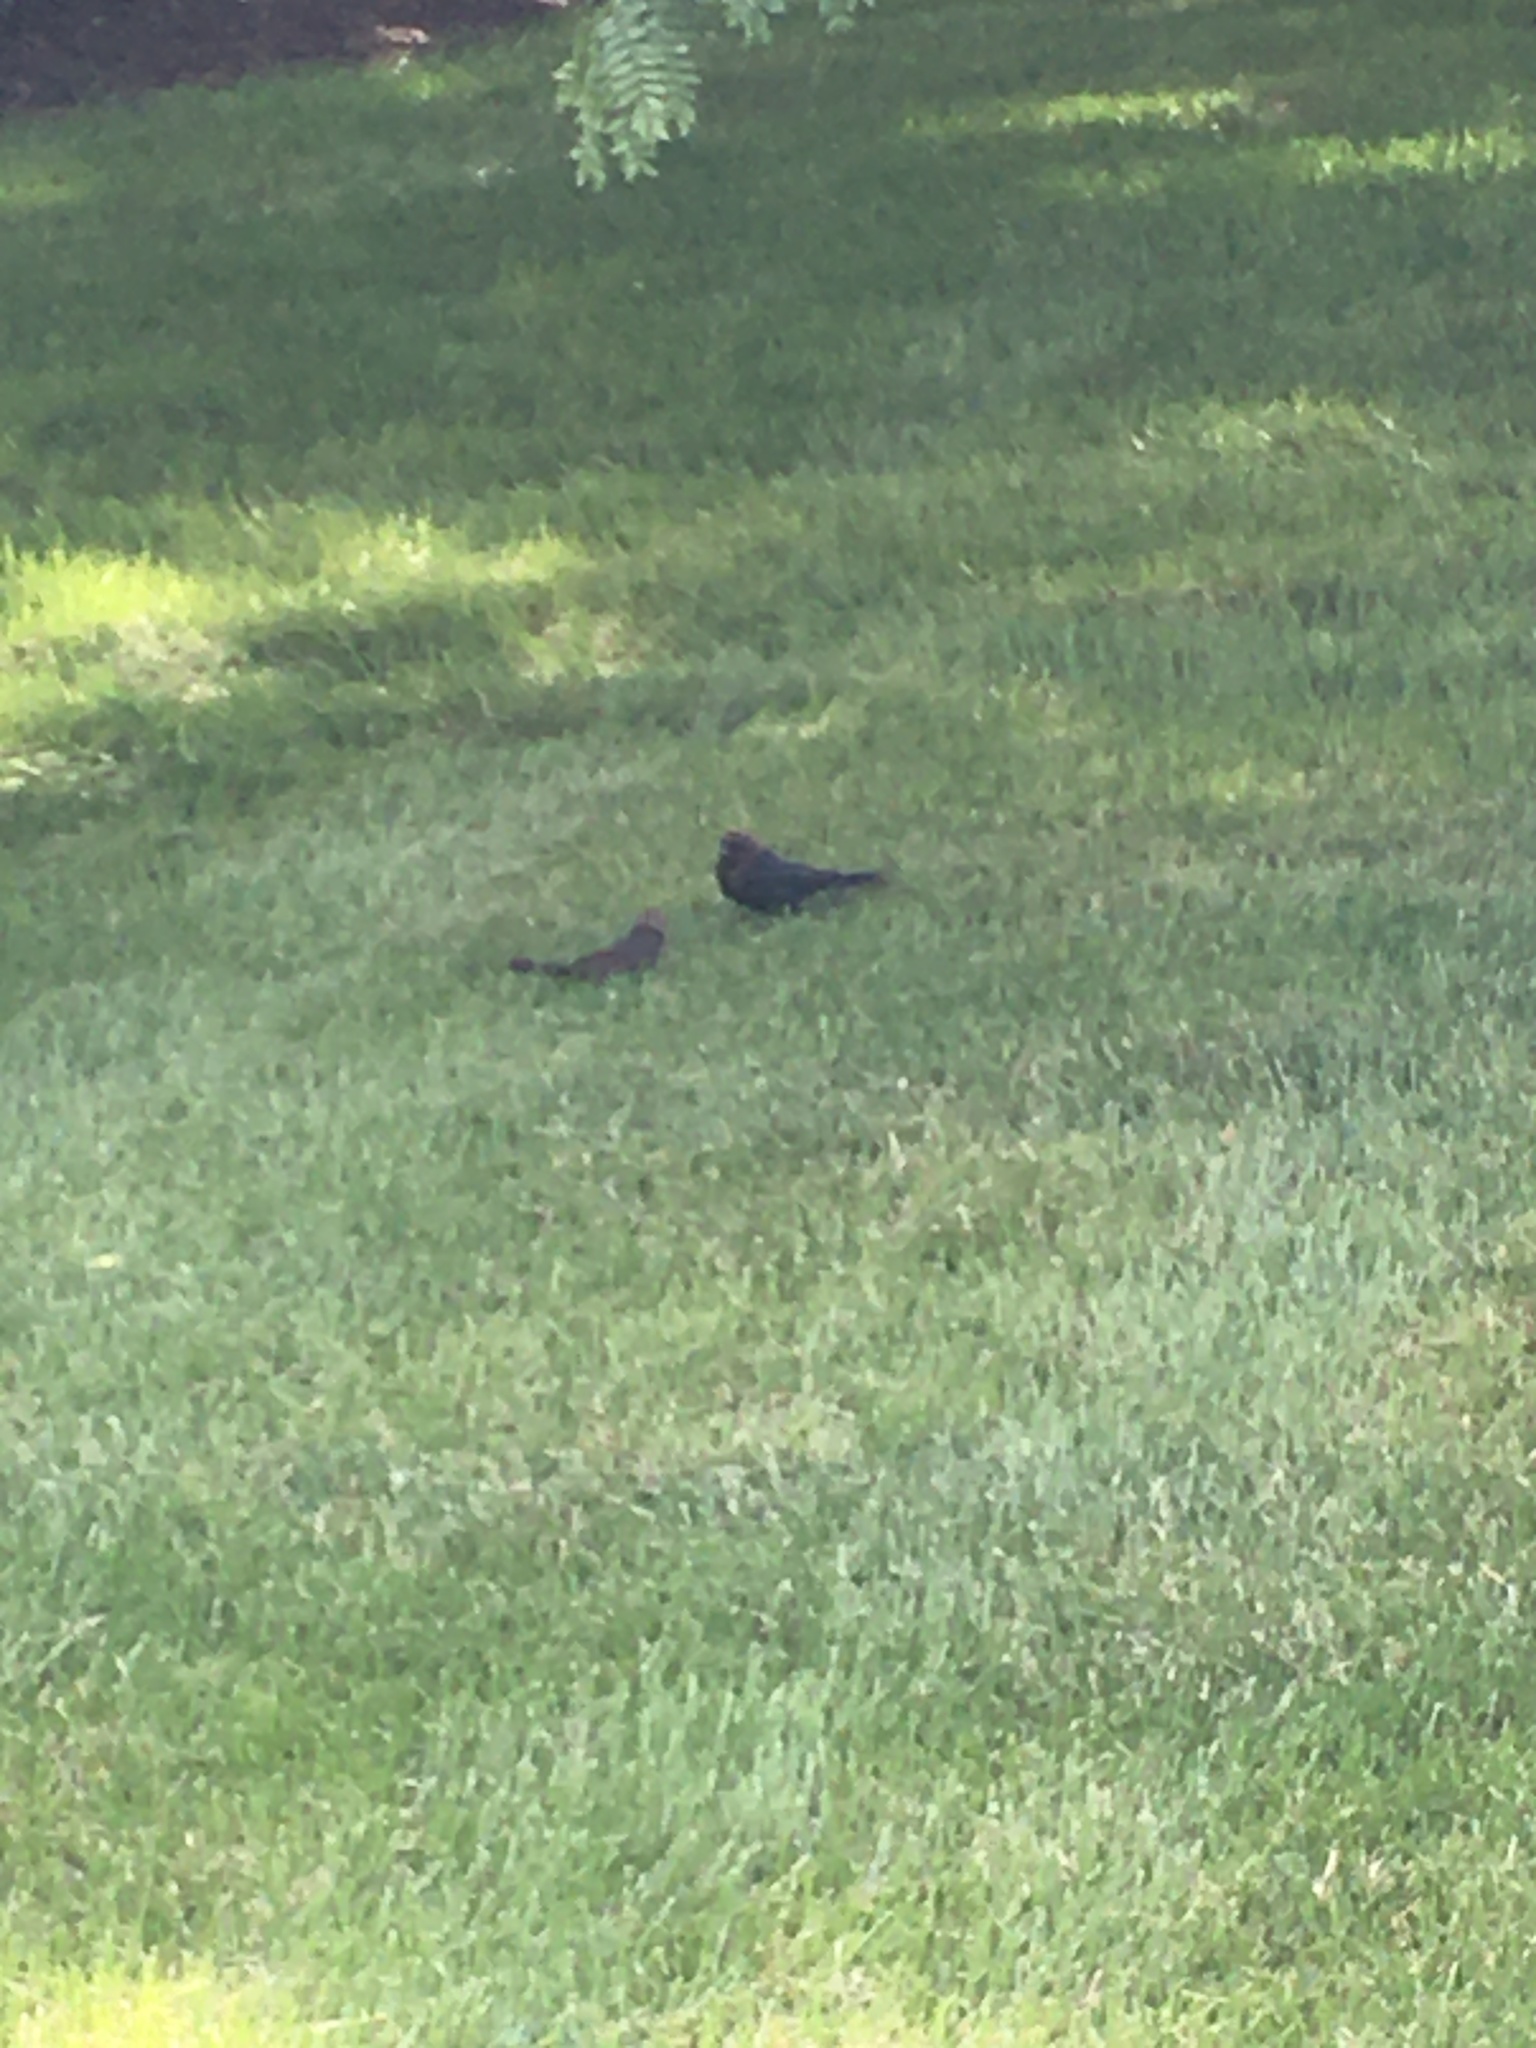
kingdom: Animalia
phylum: Chordata
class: Aves
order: Passeriformes
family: Icteridae
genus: Molothrus
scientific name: Molothrus ater
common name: Brown-headed cowbird
